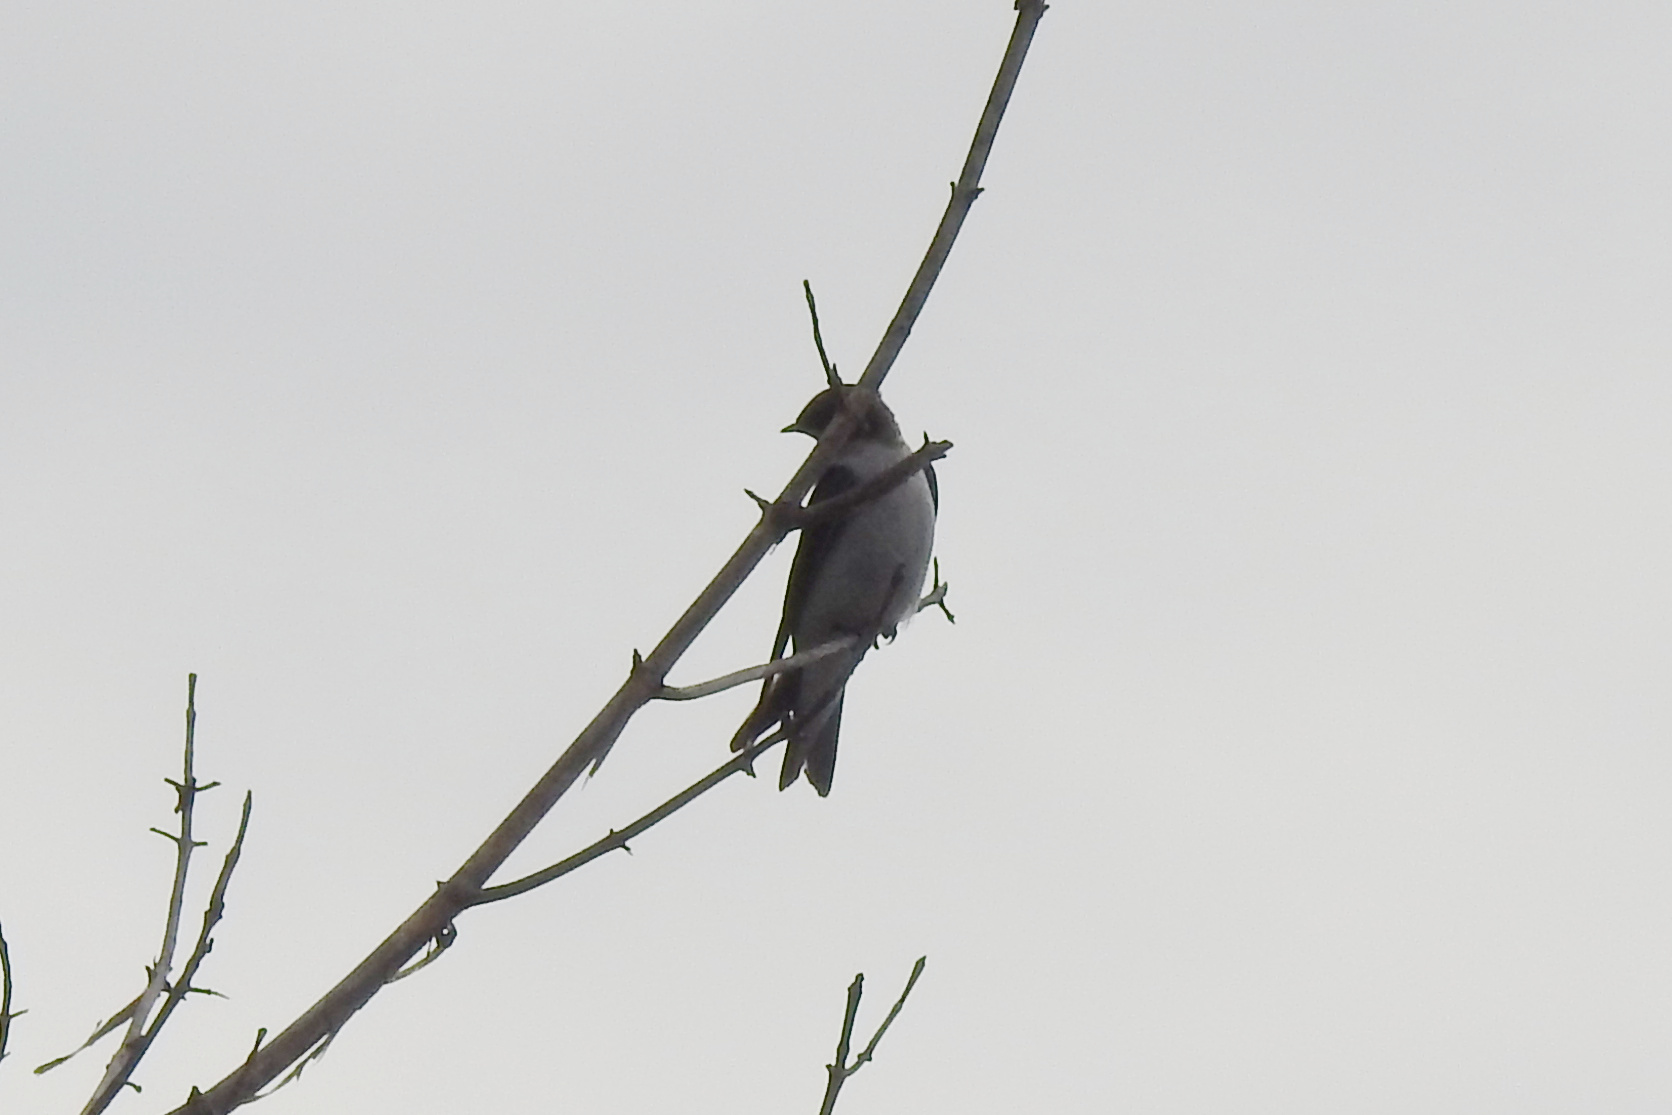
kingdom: Animalia
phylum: Chordata
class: Aves
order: Passeriformes
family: Hirundinidae
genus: Tachycineta
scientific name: Tachycineta bicolor
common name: Tree swallow
